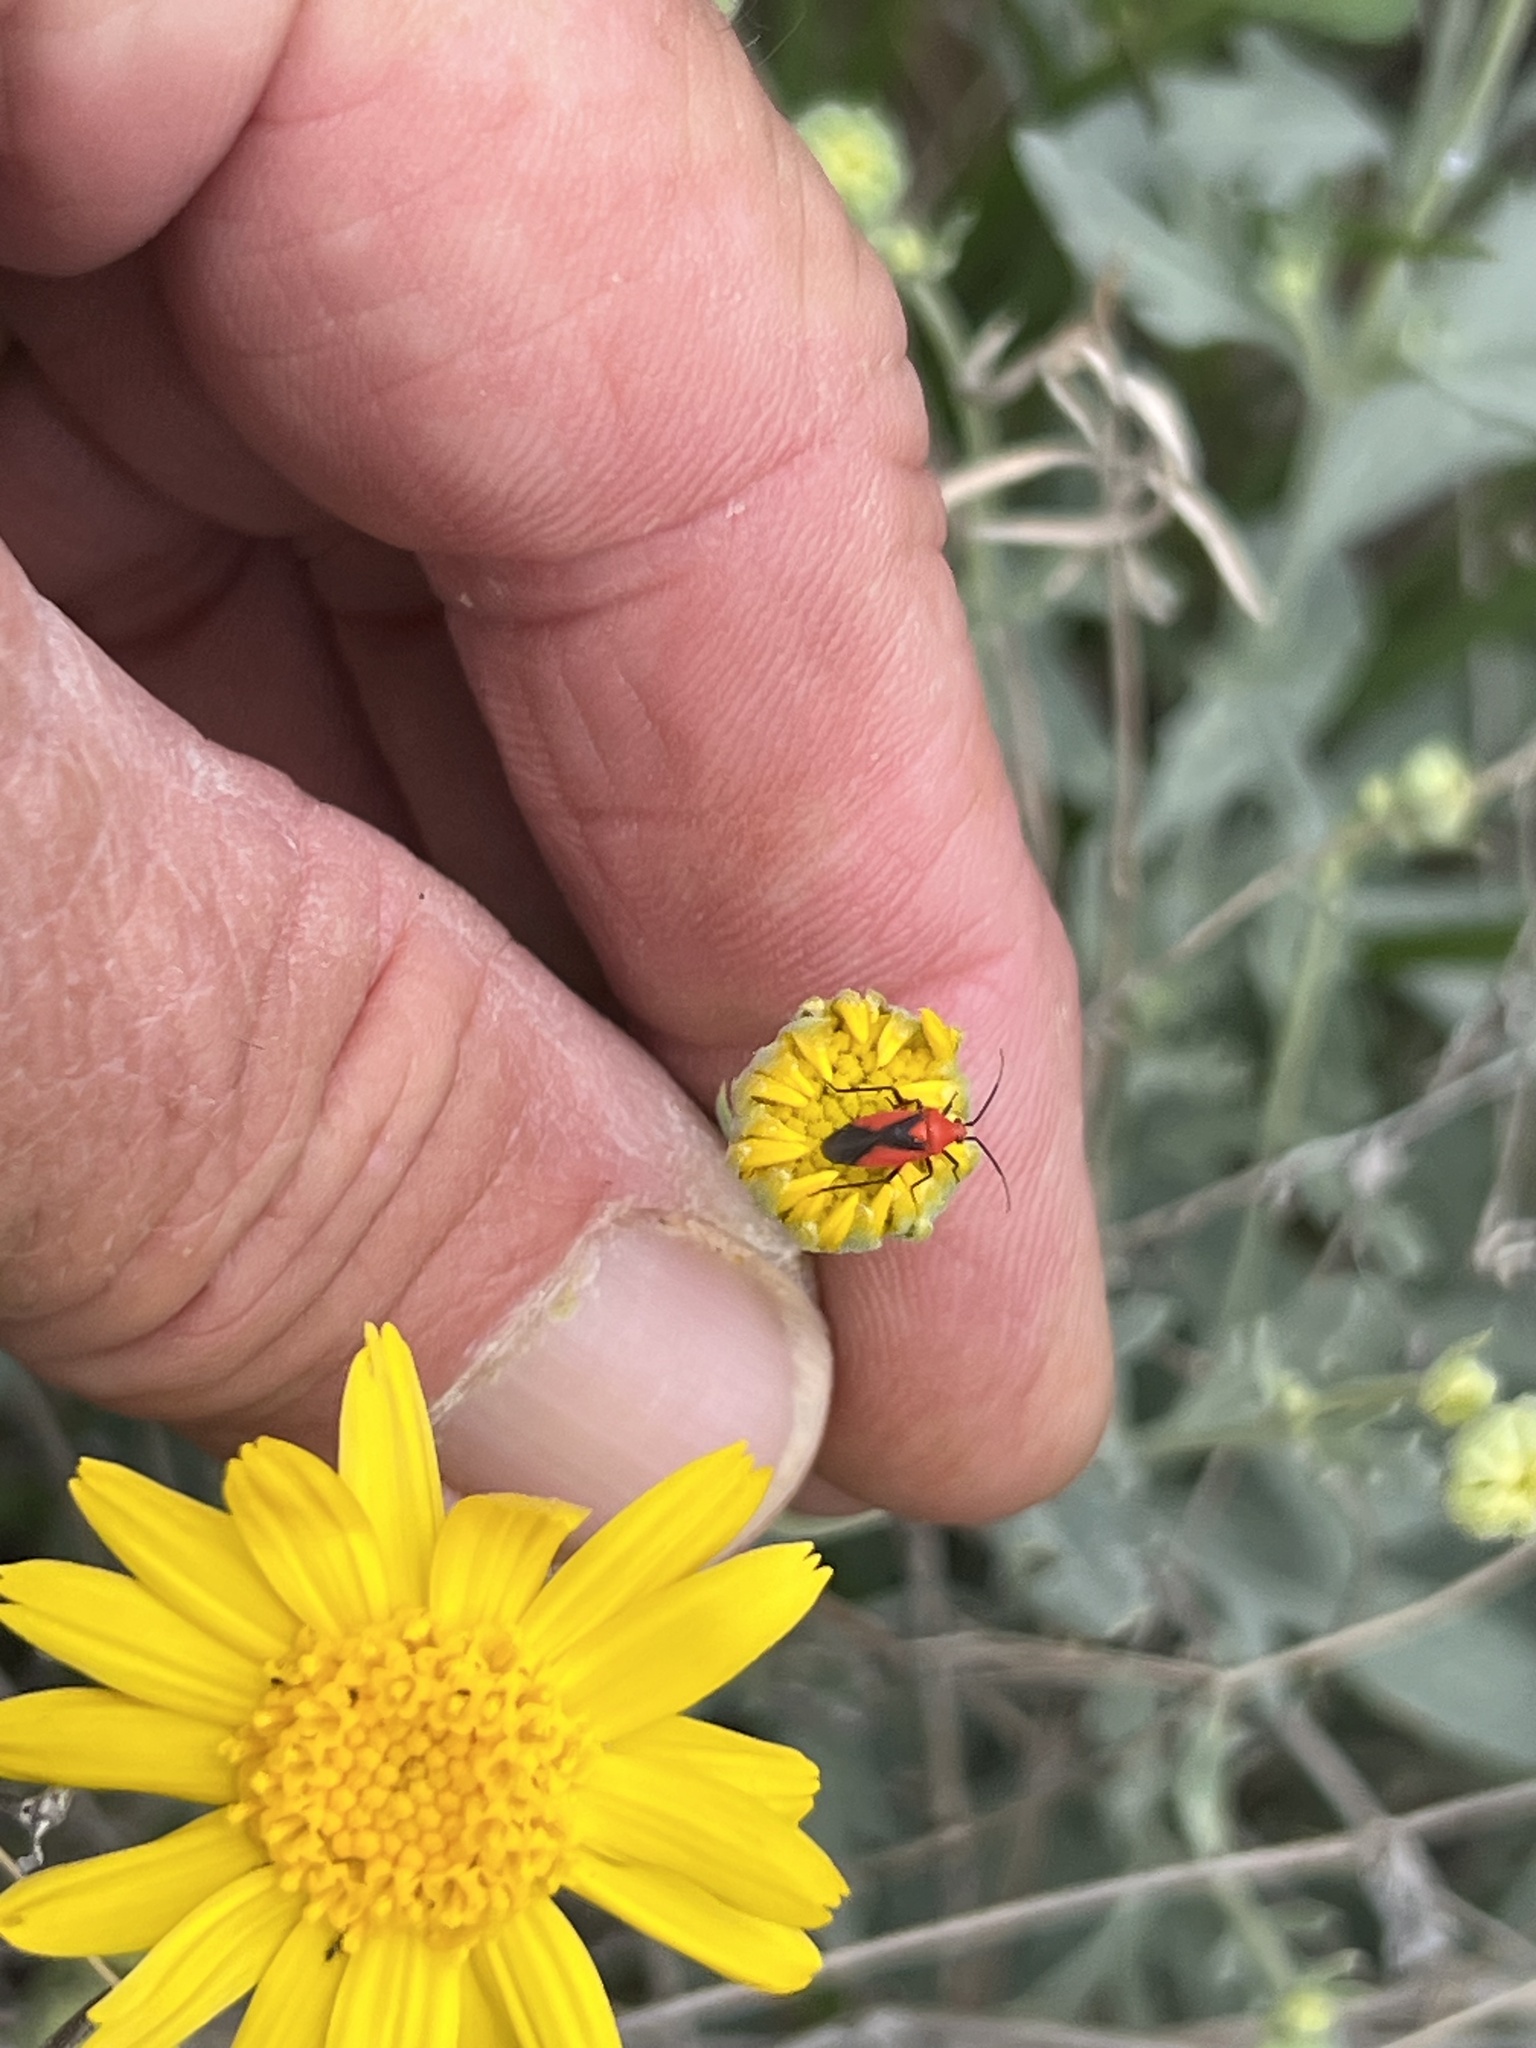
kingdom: Animalia
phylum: Arthropoda
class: Insecta
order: Hemiptera
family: Miridae
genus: Oncerometopus
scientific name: Oncerometopus nigriclavus
